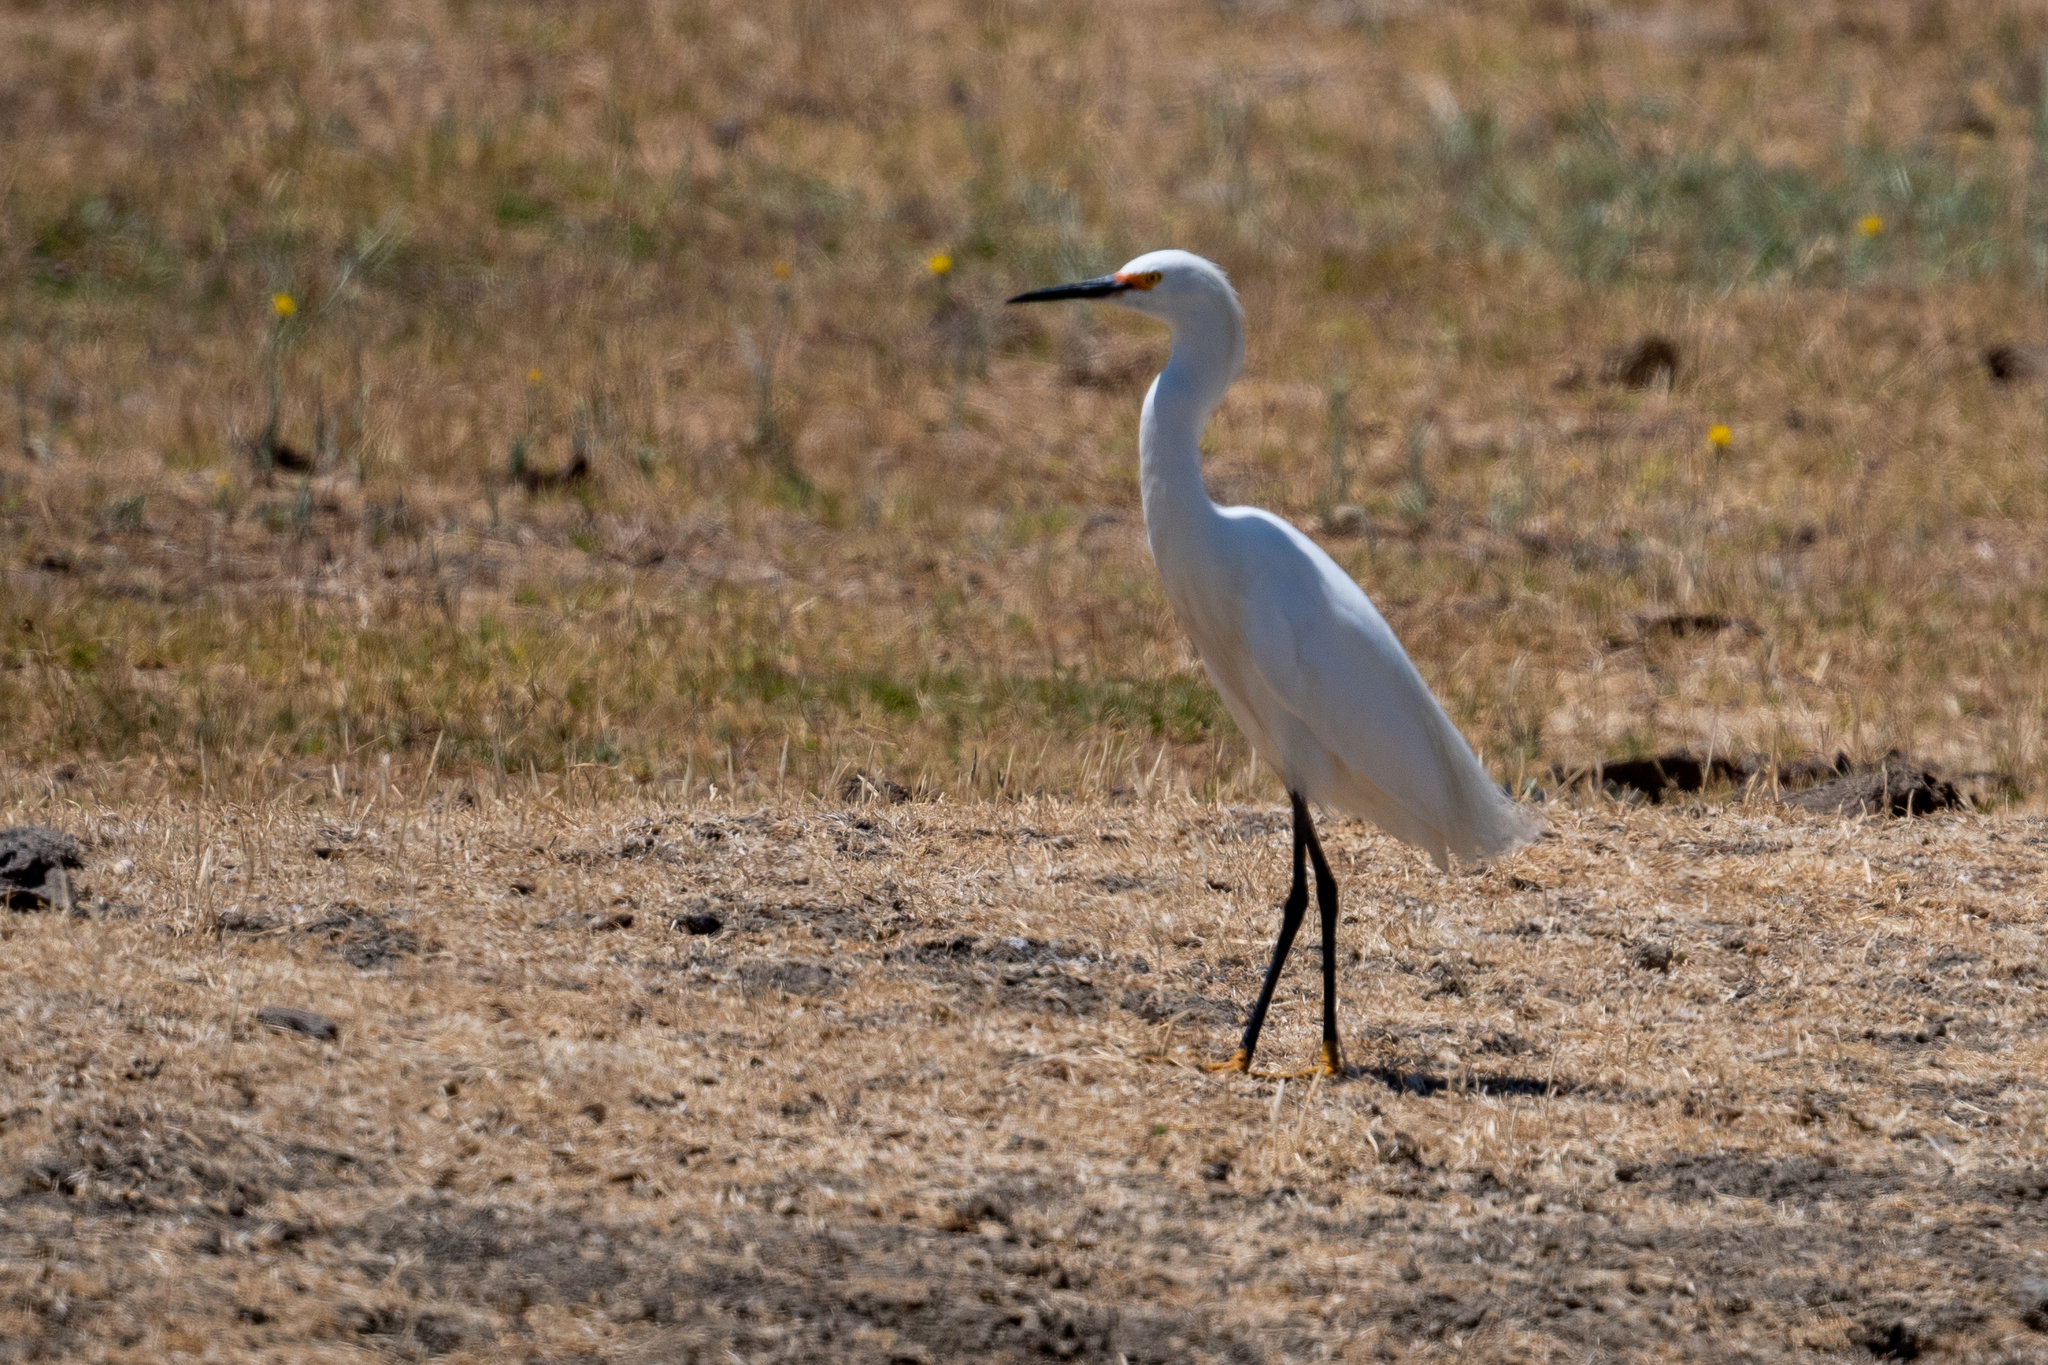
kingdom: Animalia
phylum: Chordata
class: Aves
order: Pelecaniformes
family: Ardeidae
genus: Egretta
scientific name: Egretta thula
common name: Snowy egret
